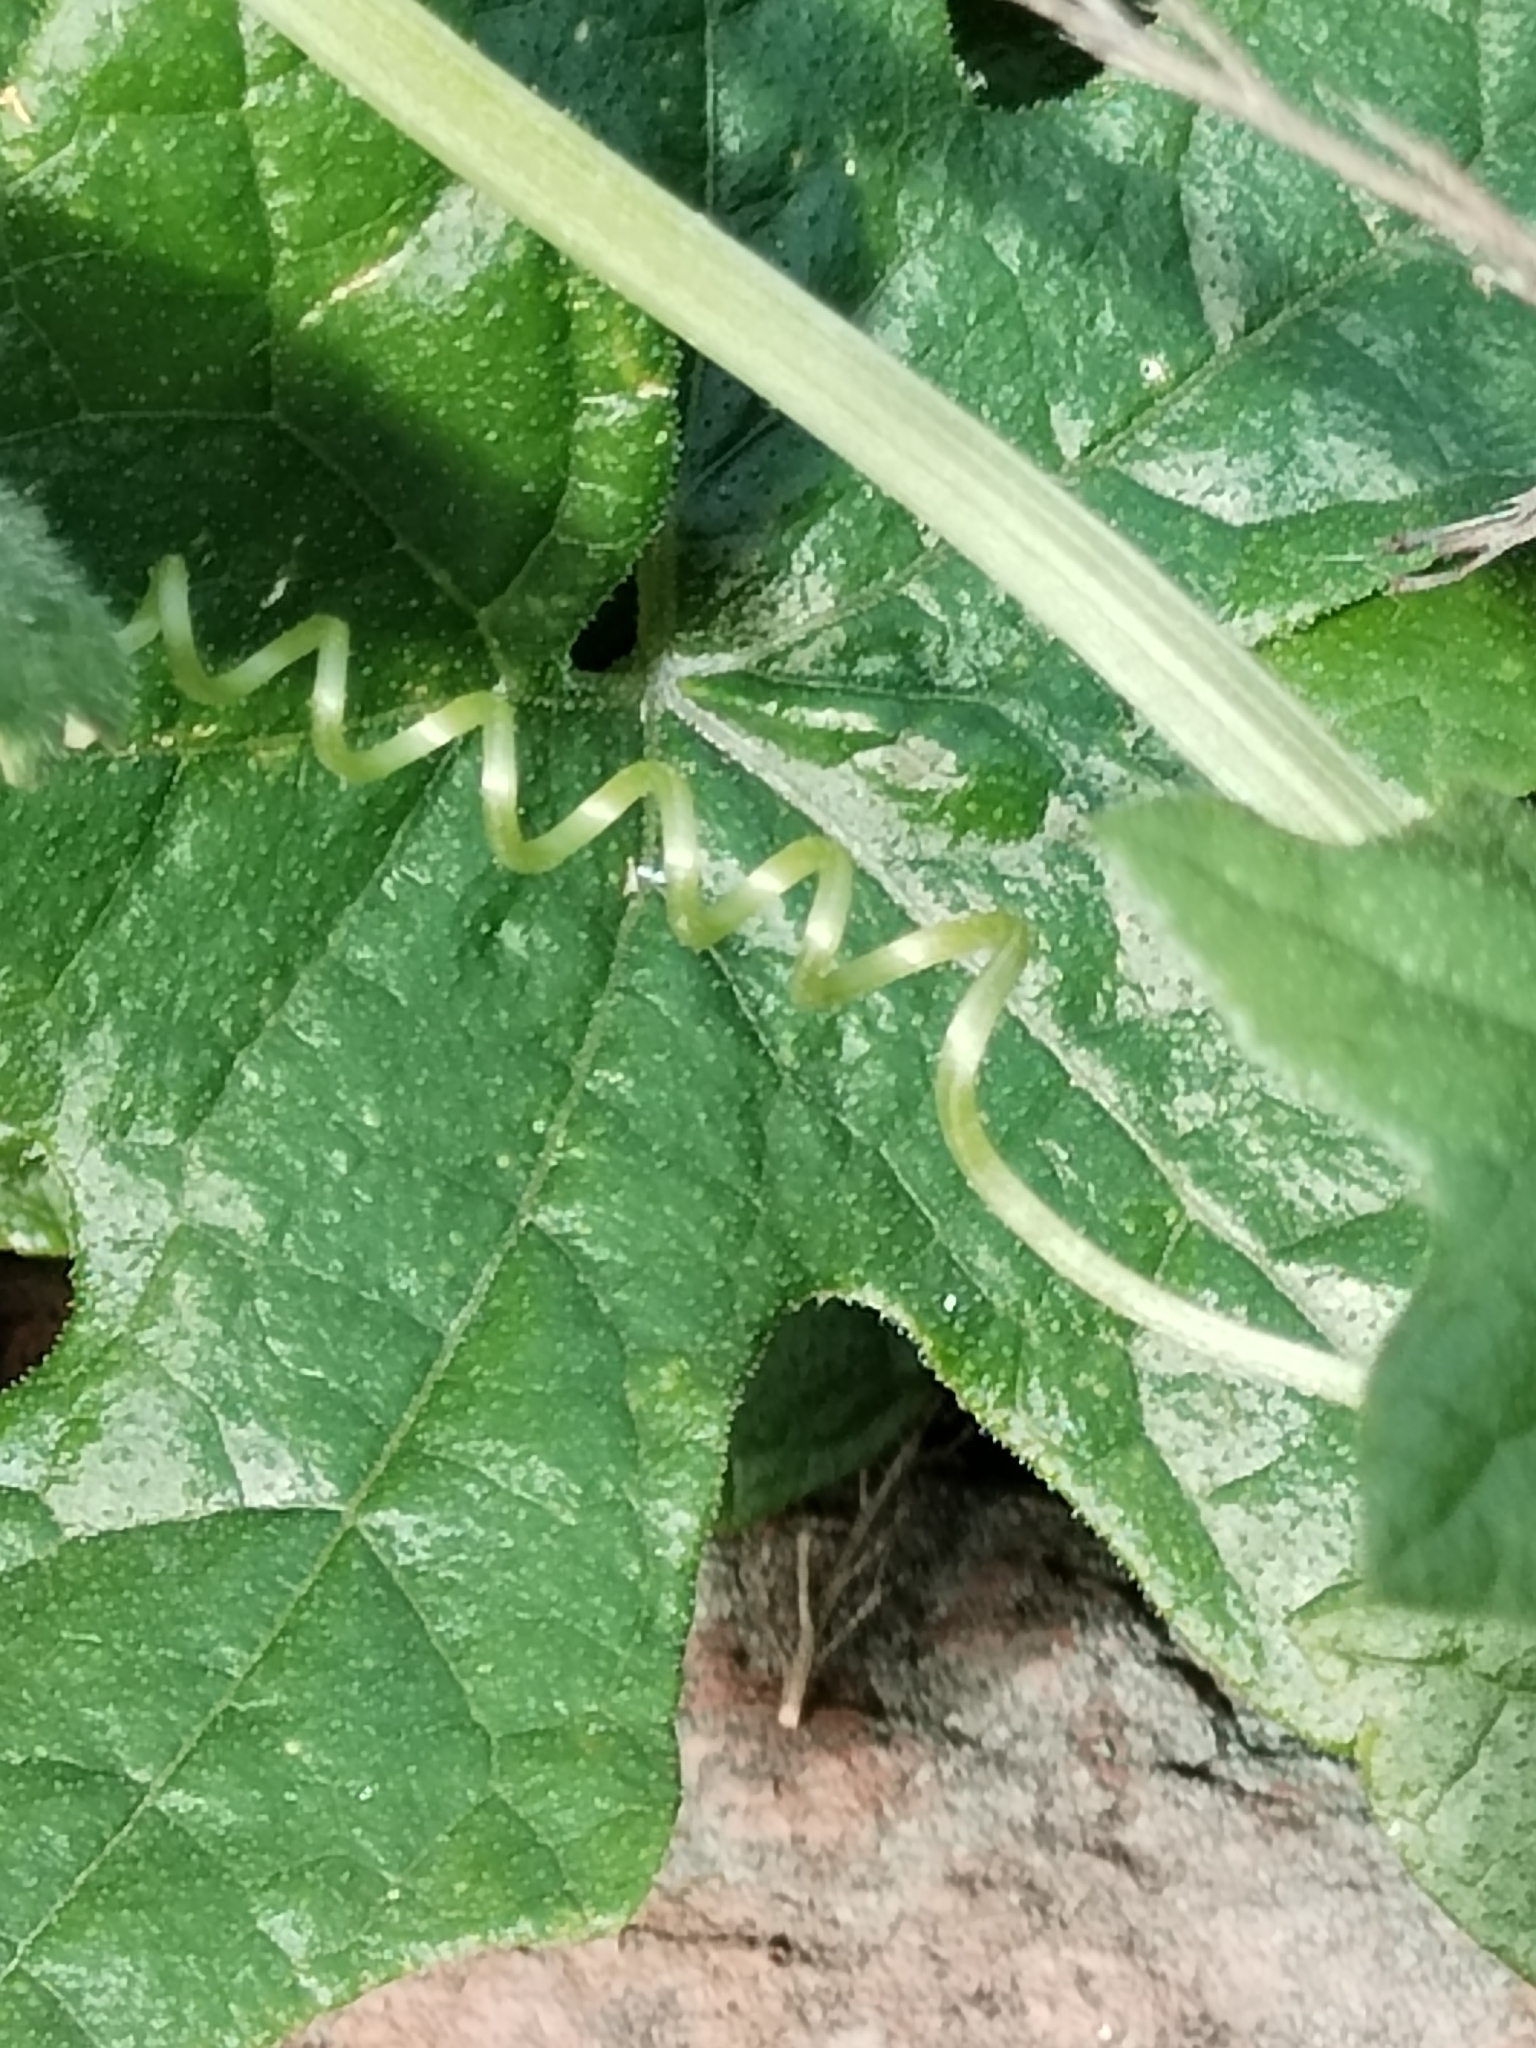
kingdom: Plantae
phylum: Tracheophyta
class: Magnoliopsida
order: Cucurbitales
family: Cucurbitaceae
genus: Marah
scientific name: Marah macrocarpa
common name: Cucamonga manroot
